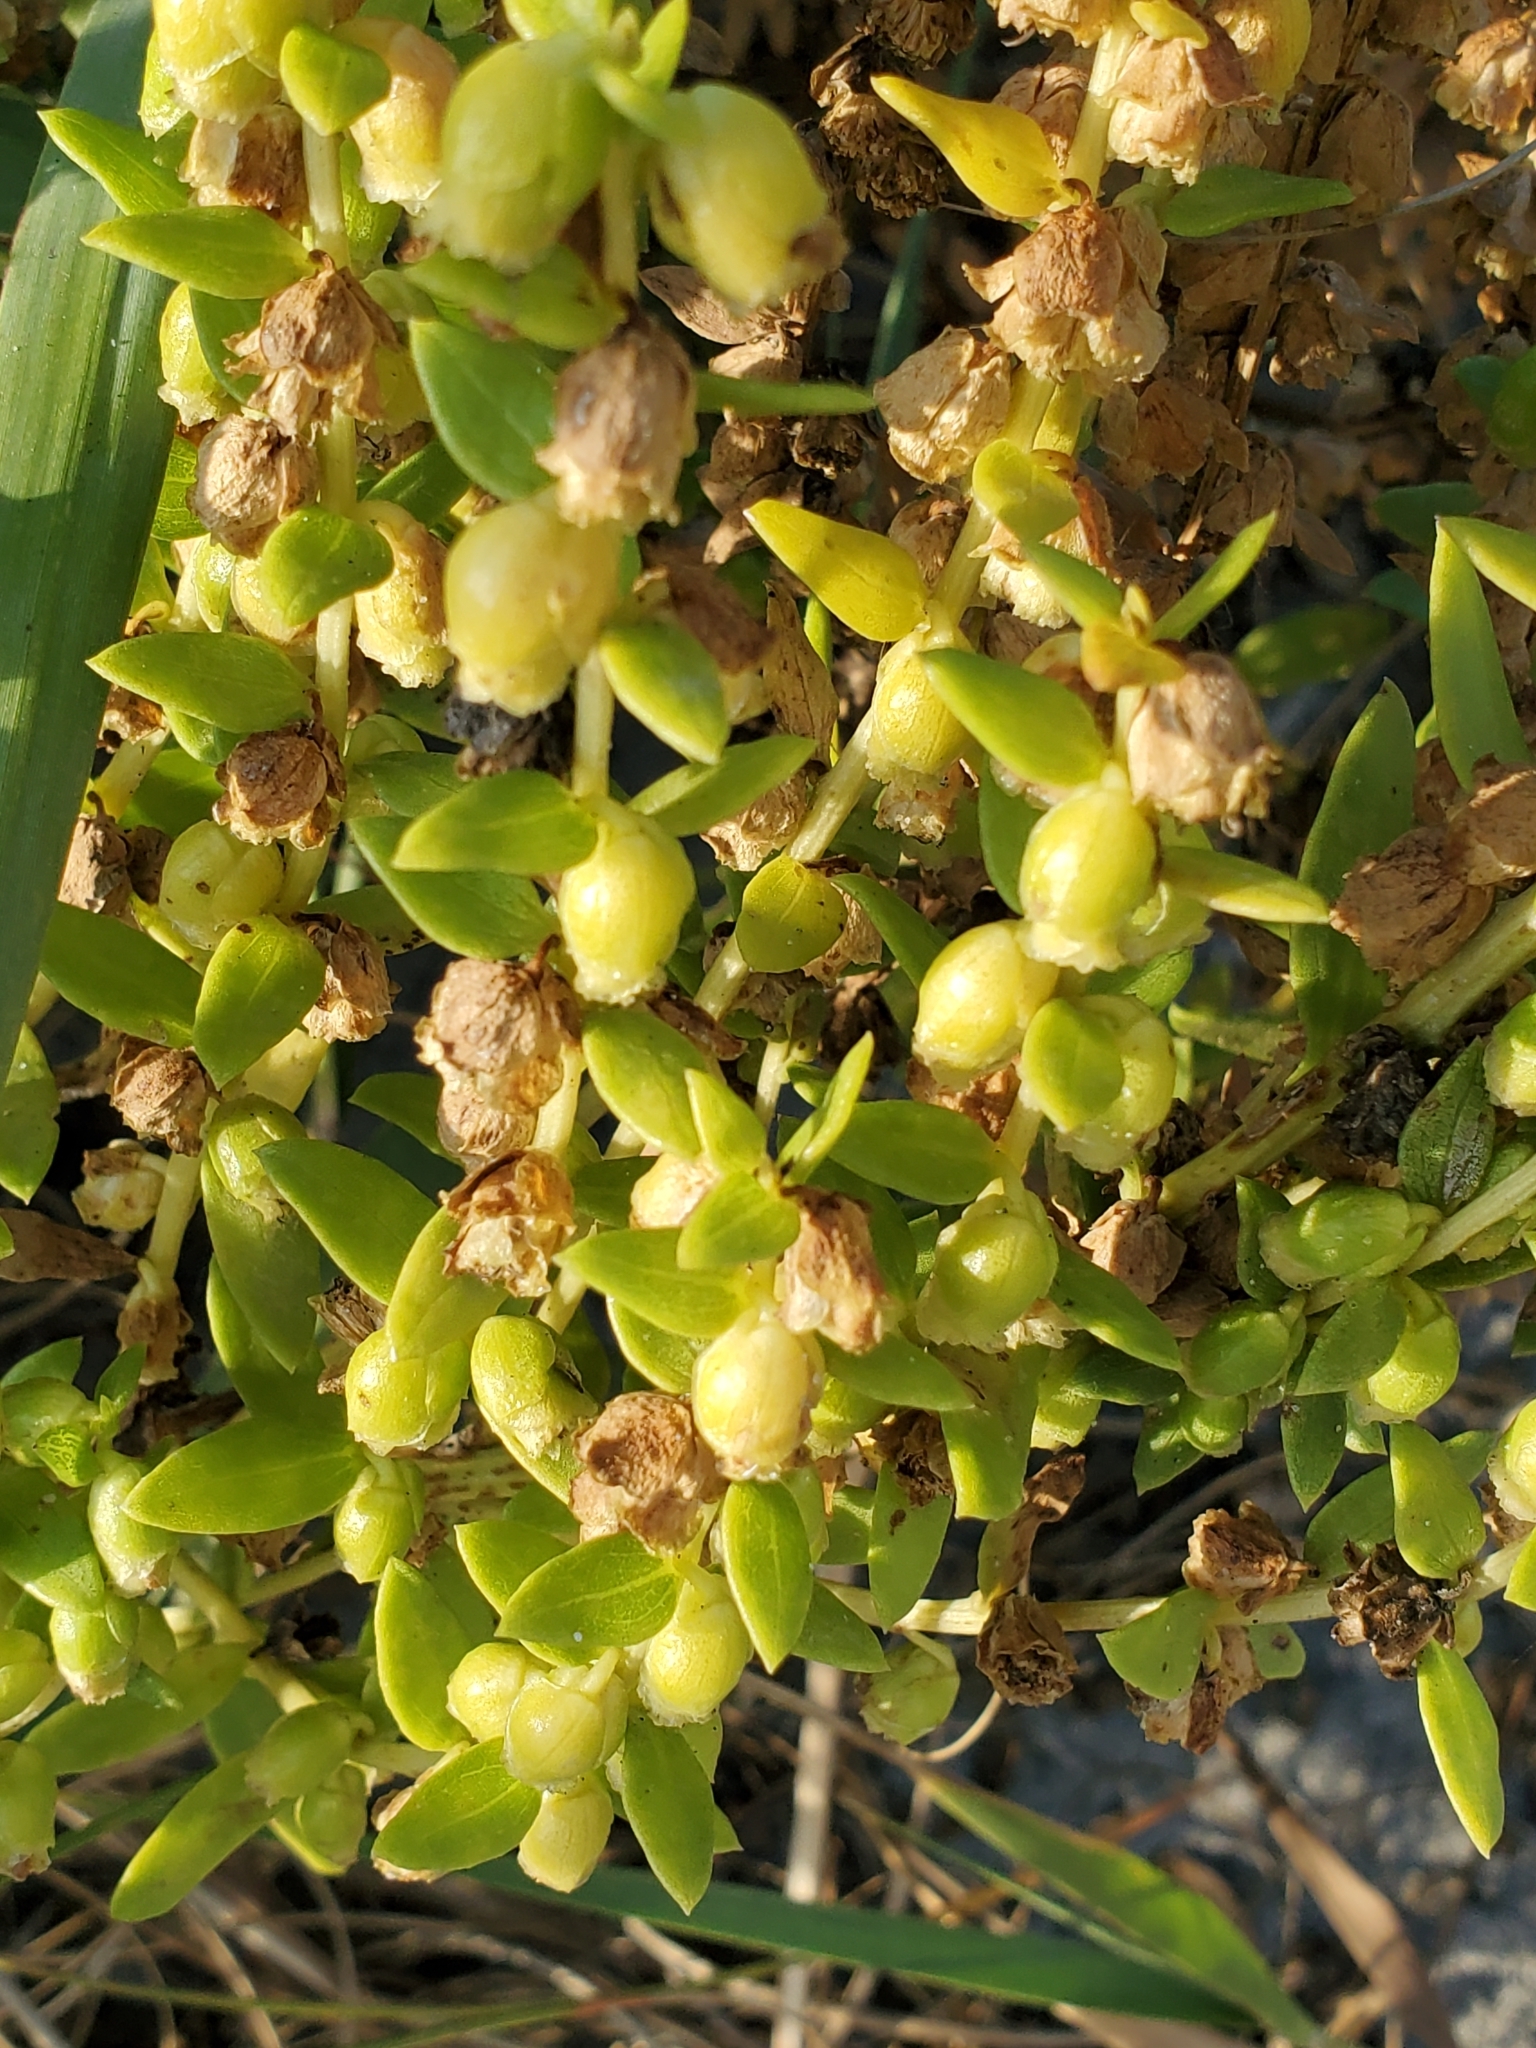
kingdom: Plantae
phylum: Tracheophyta
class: Magnoliopsida
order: Asterales
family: Asteraceae
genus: Iva
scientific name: Iva imbricata
